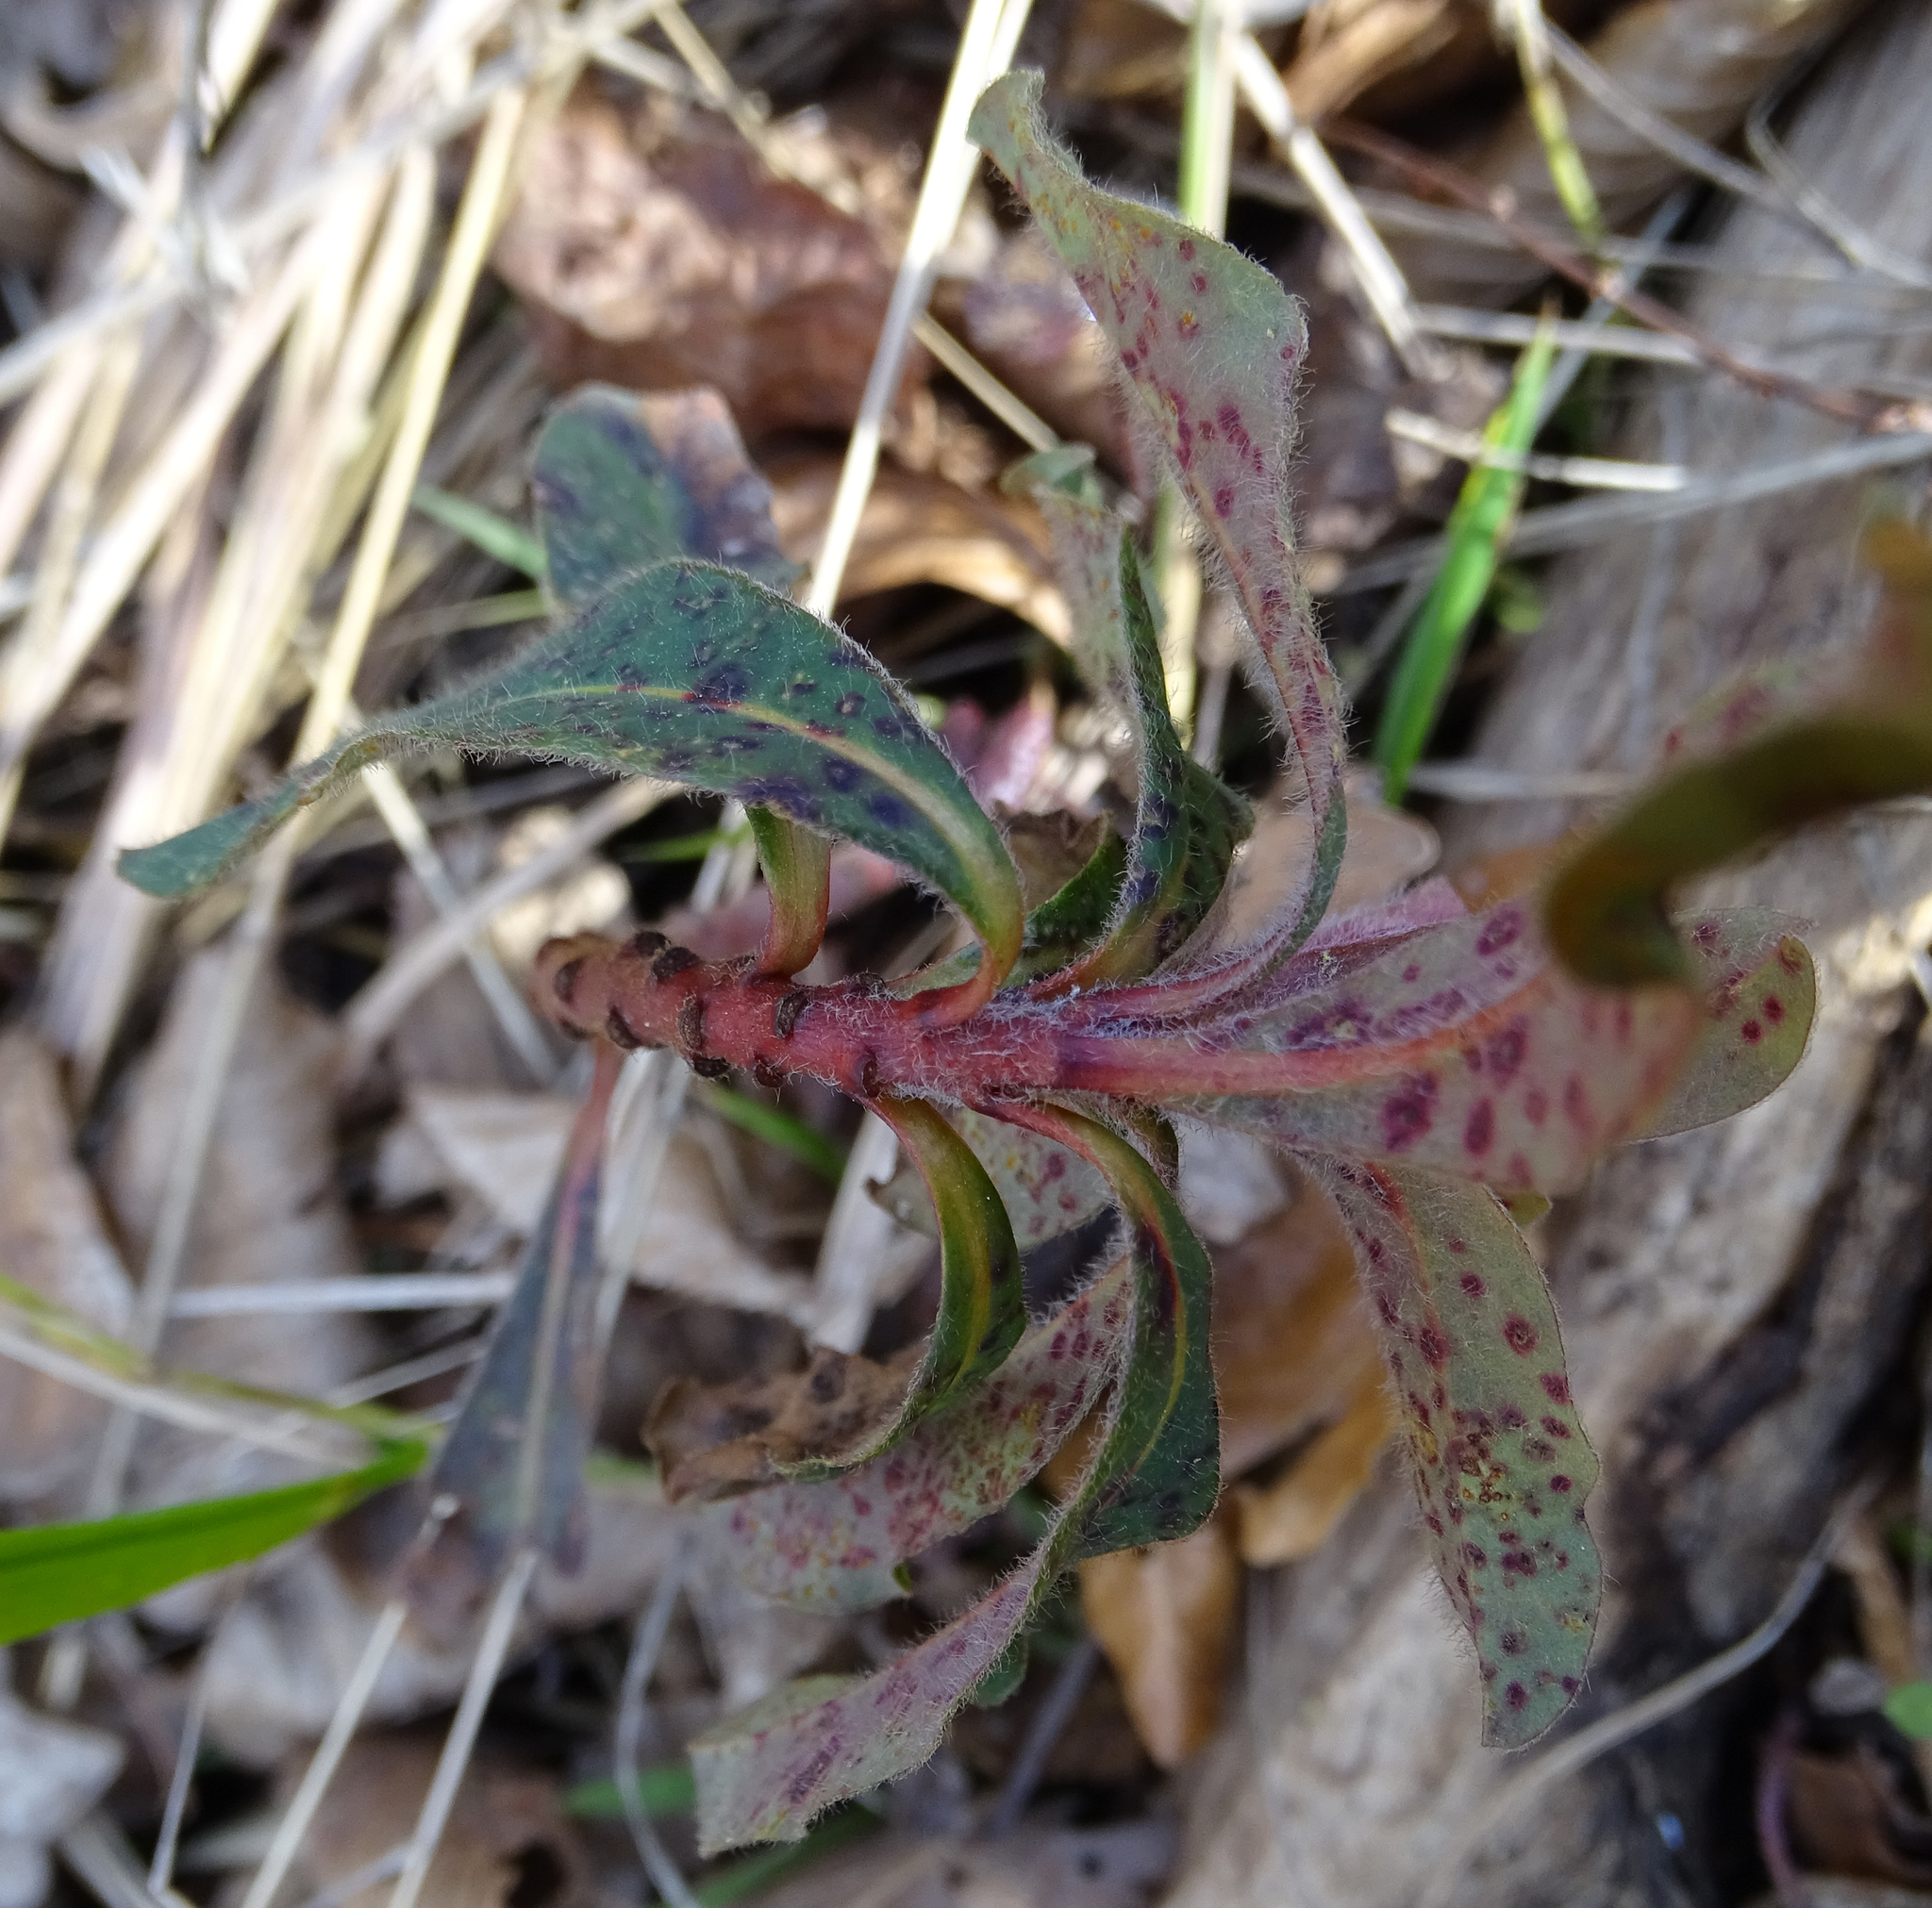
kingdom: Plantae
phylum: Tracheophyta
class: Magnoliopsida
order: Malpighiales
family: Euphorbiaceae
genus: Euphorbia
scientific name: Euphorbia amygdaloides
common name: Wood spurge
